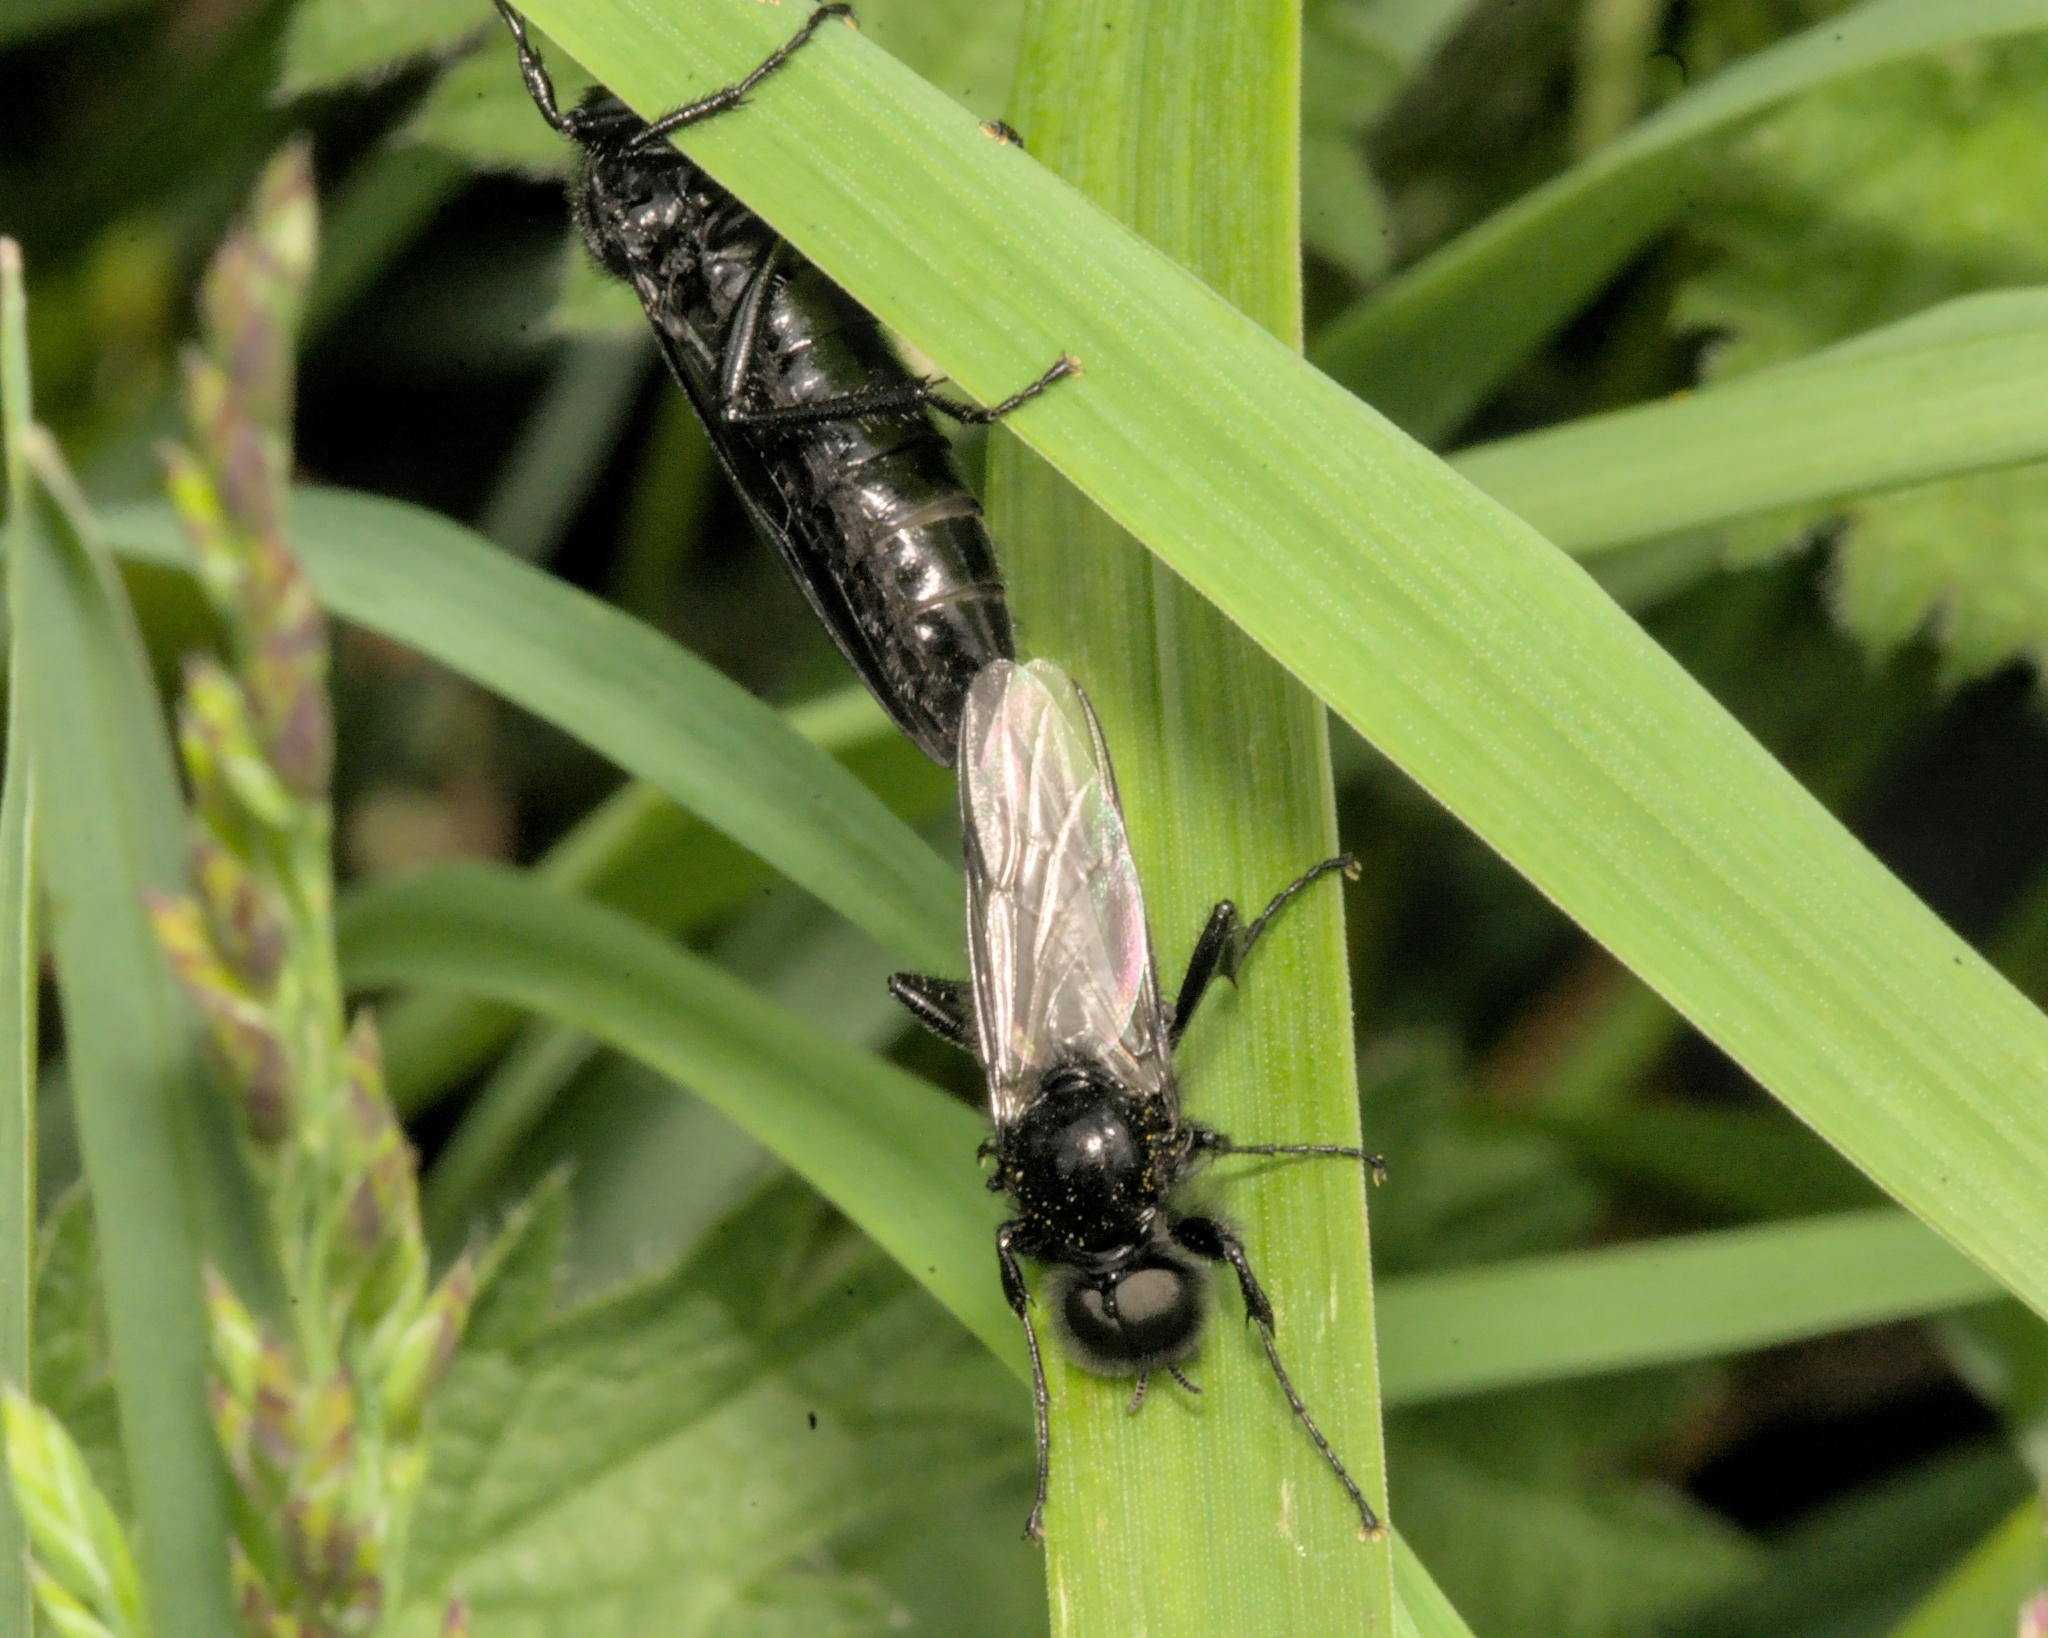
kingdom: Animalia
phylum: Arthropoda
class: Insecta
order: Diptera
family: Bibionidae
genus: Bibio
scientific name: Bibio marci
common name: St marks fly
